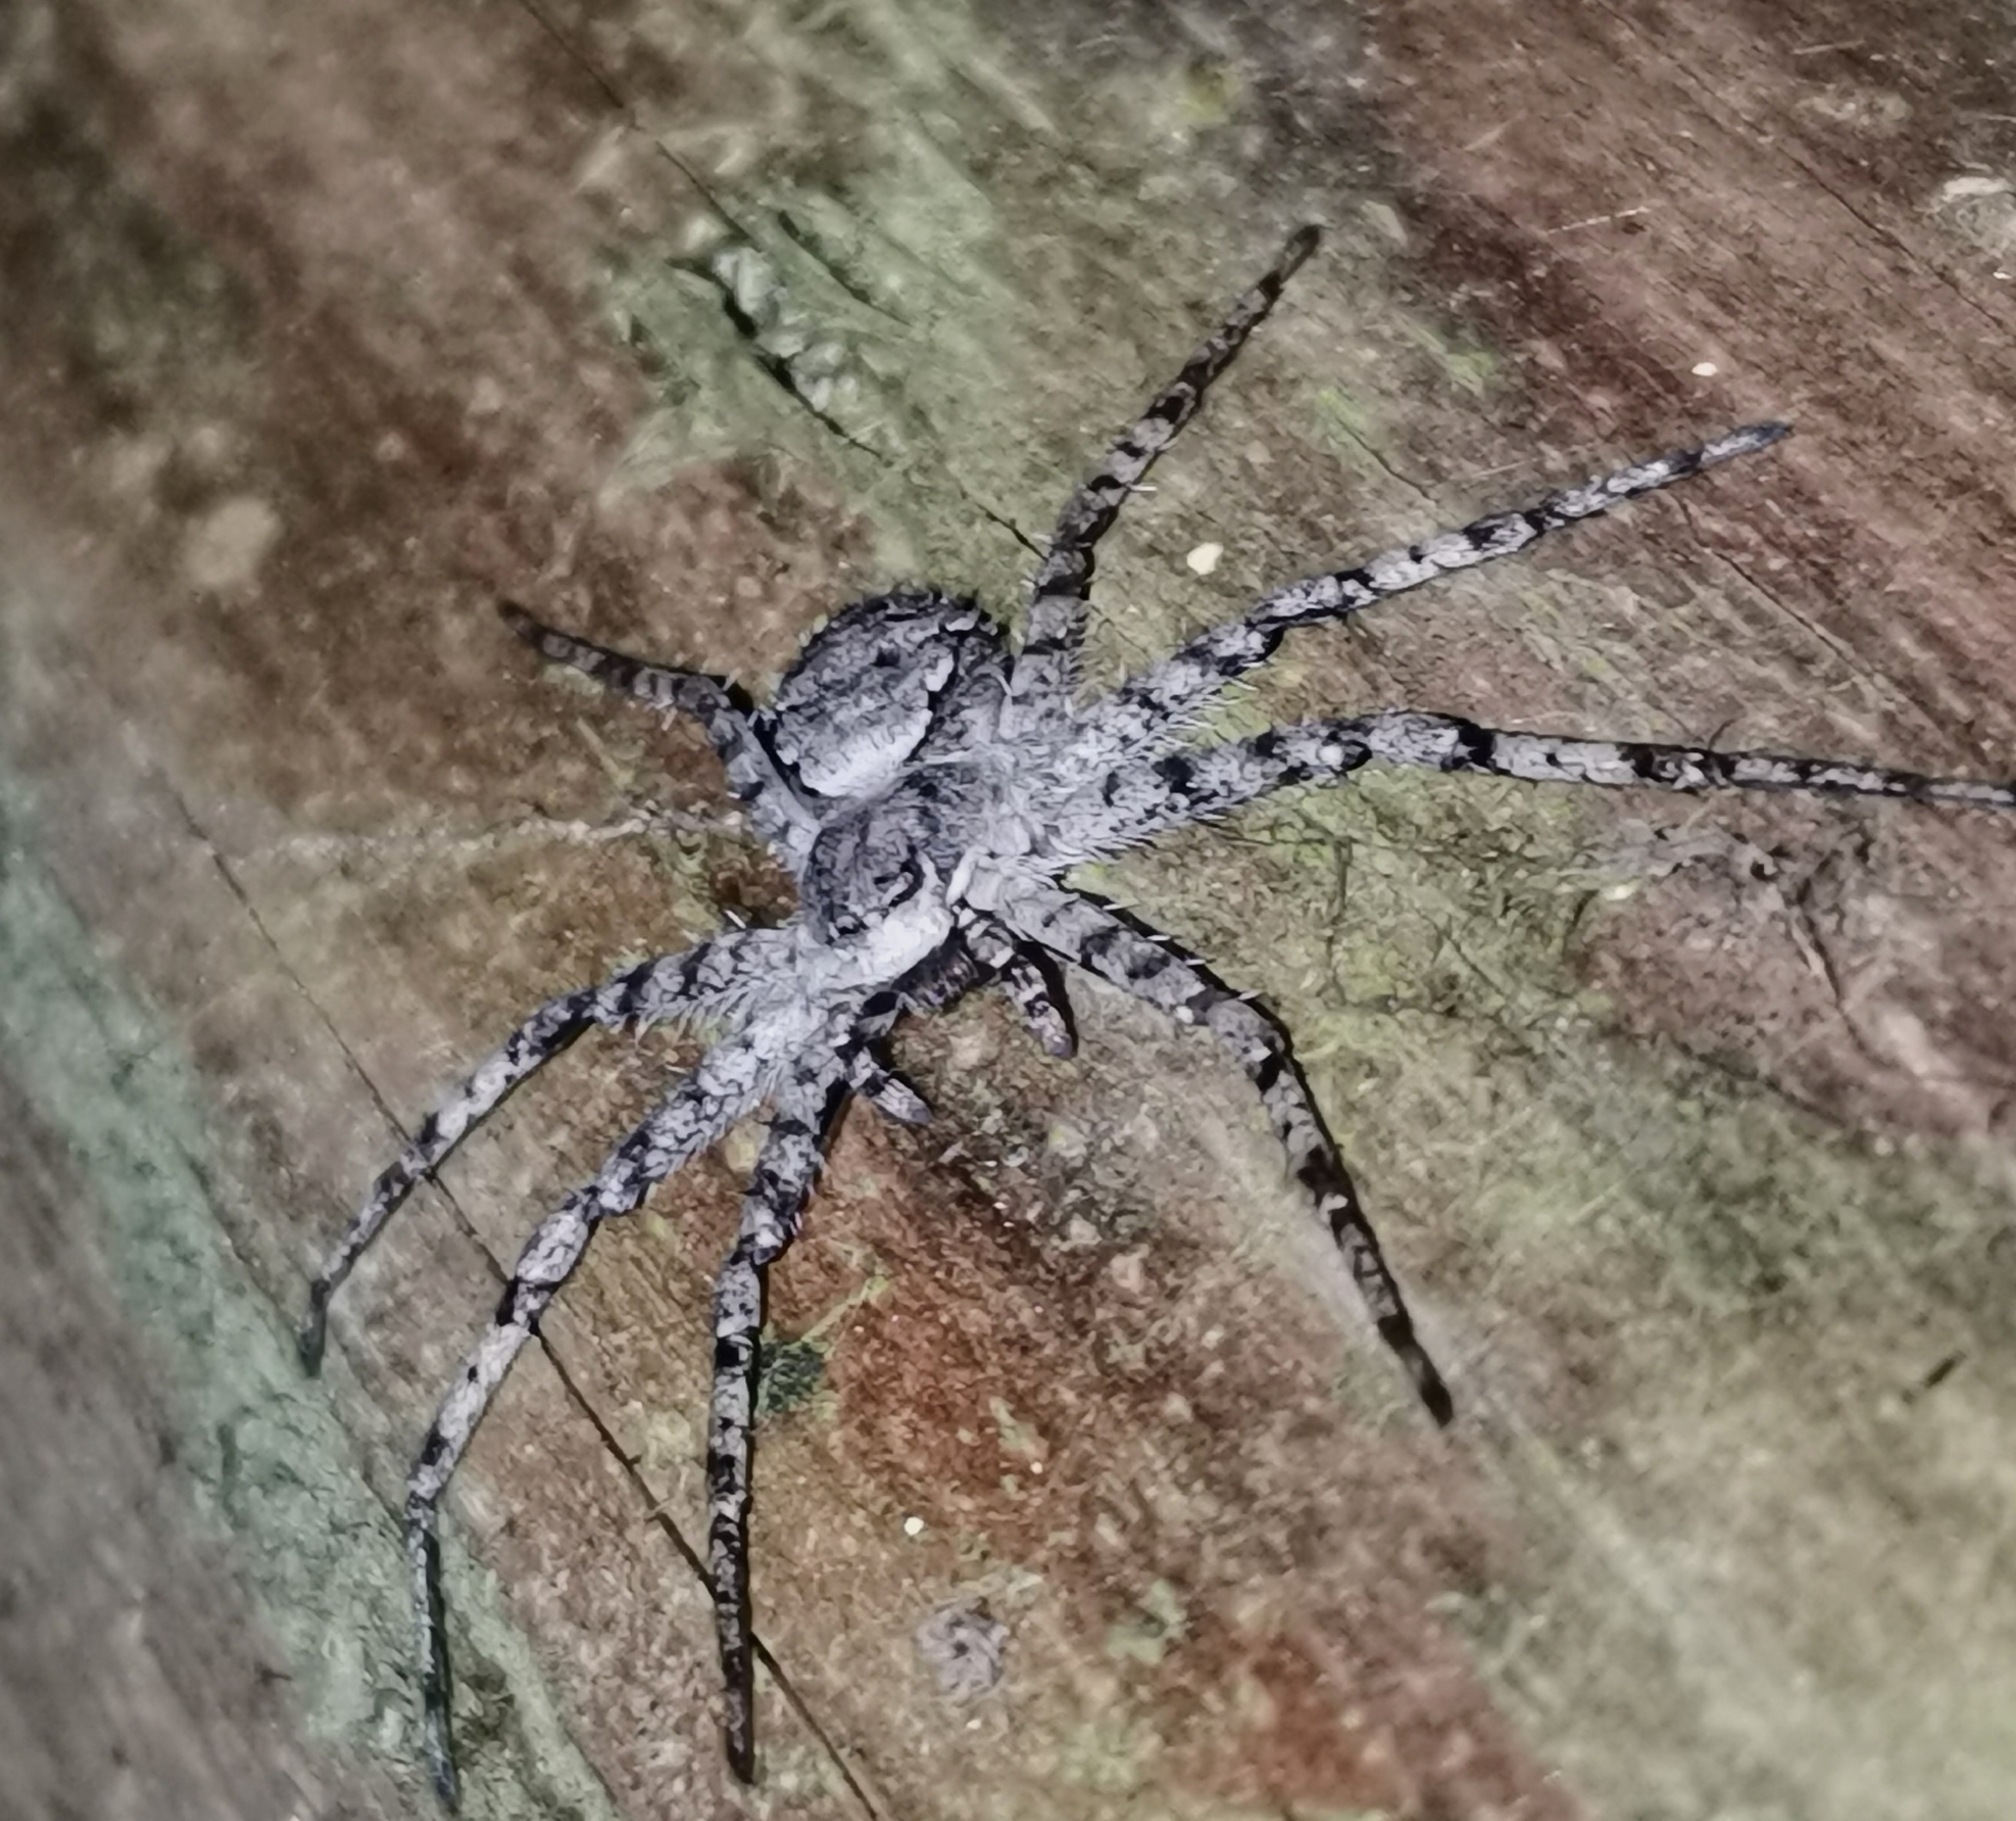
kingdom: Animalia
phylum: Arthropoda
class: Arachnida
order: Araneae
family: Philodromidae
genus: Philodromus
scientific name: Philodromus margaritatus
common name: Lichen running-spider
